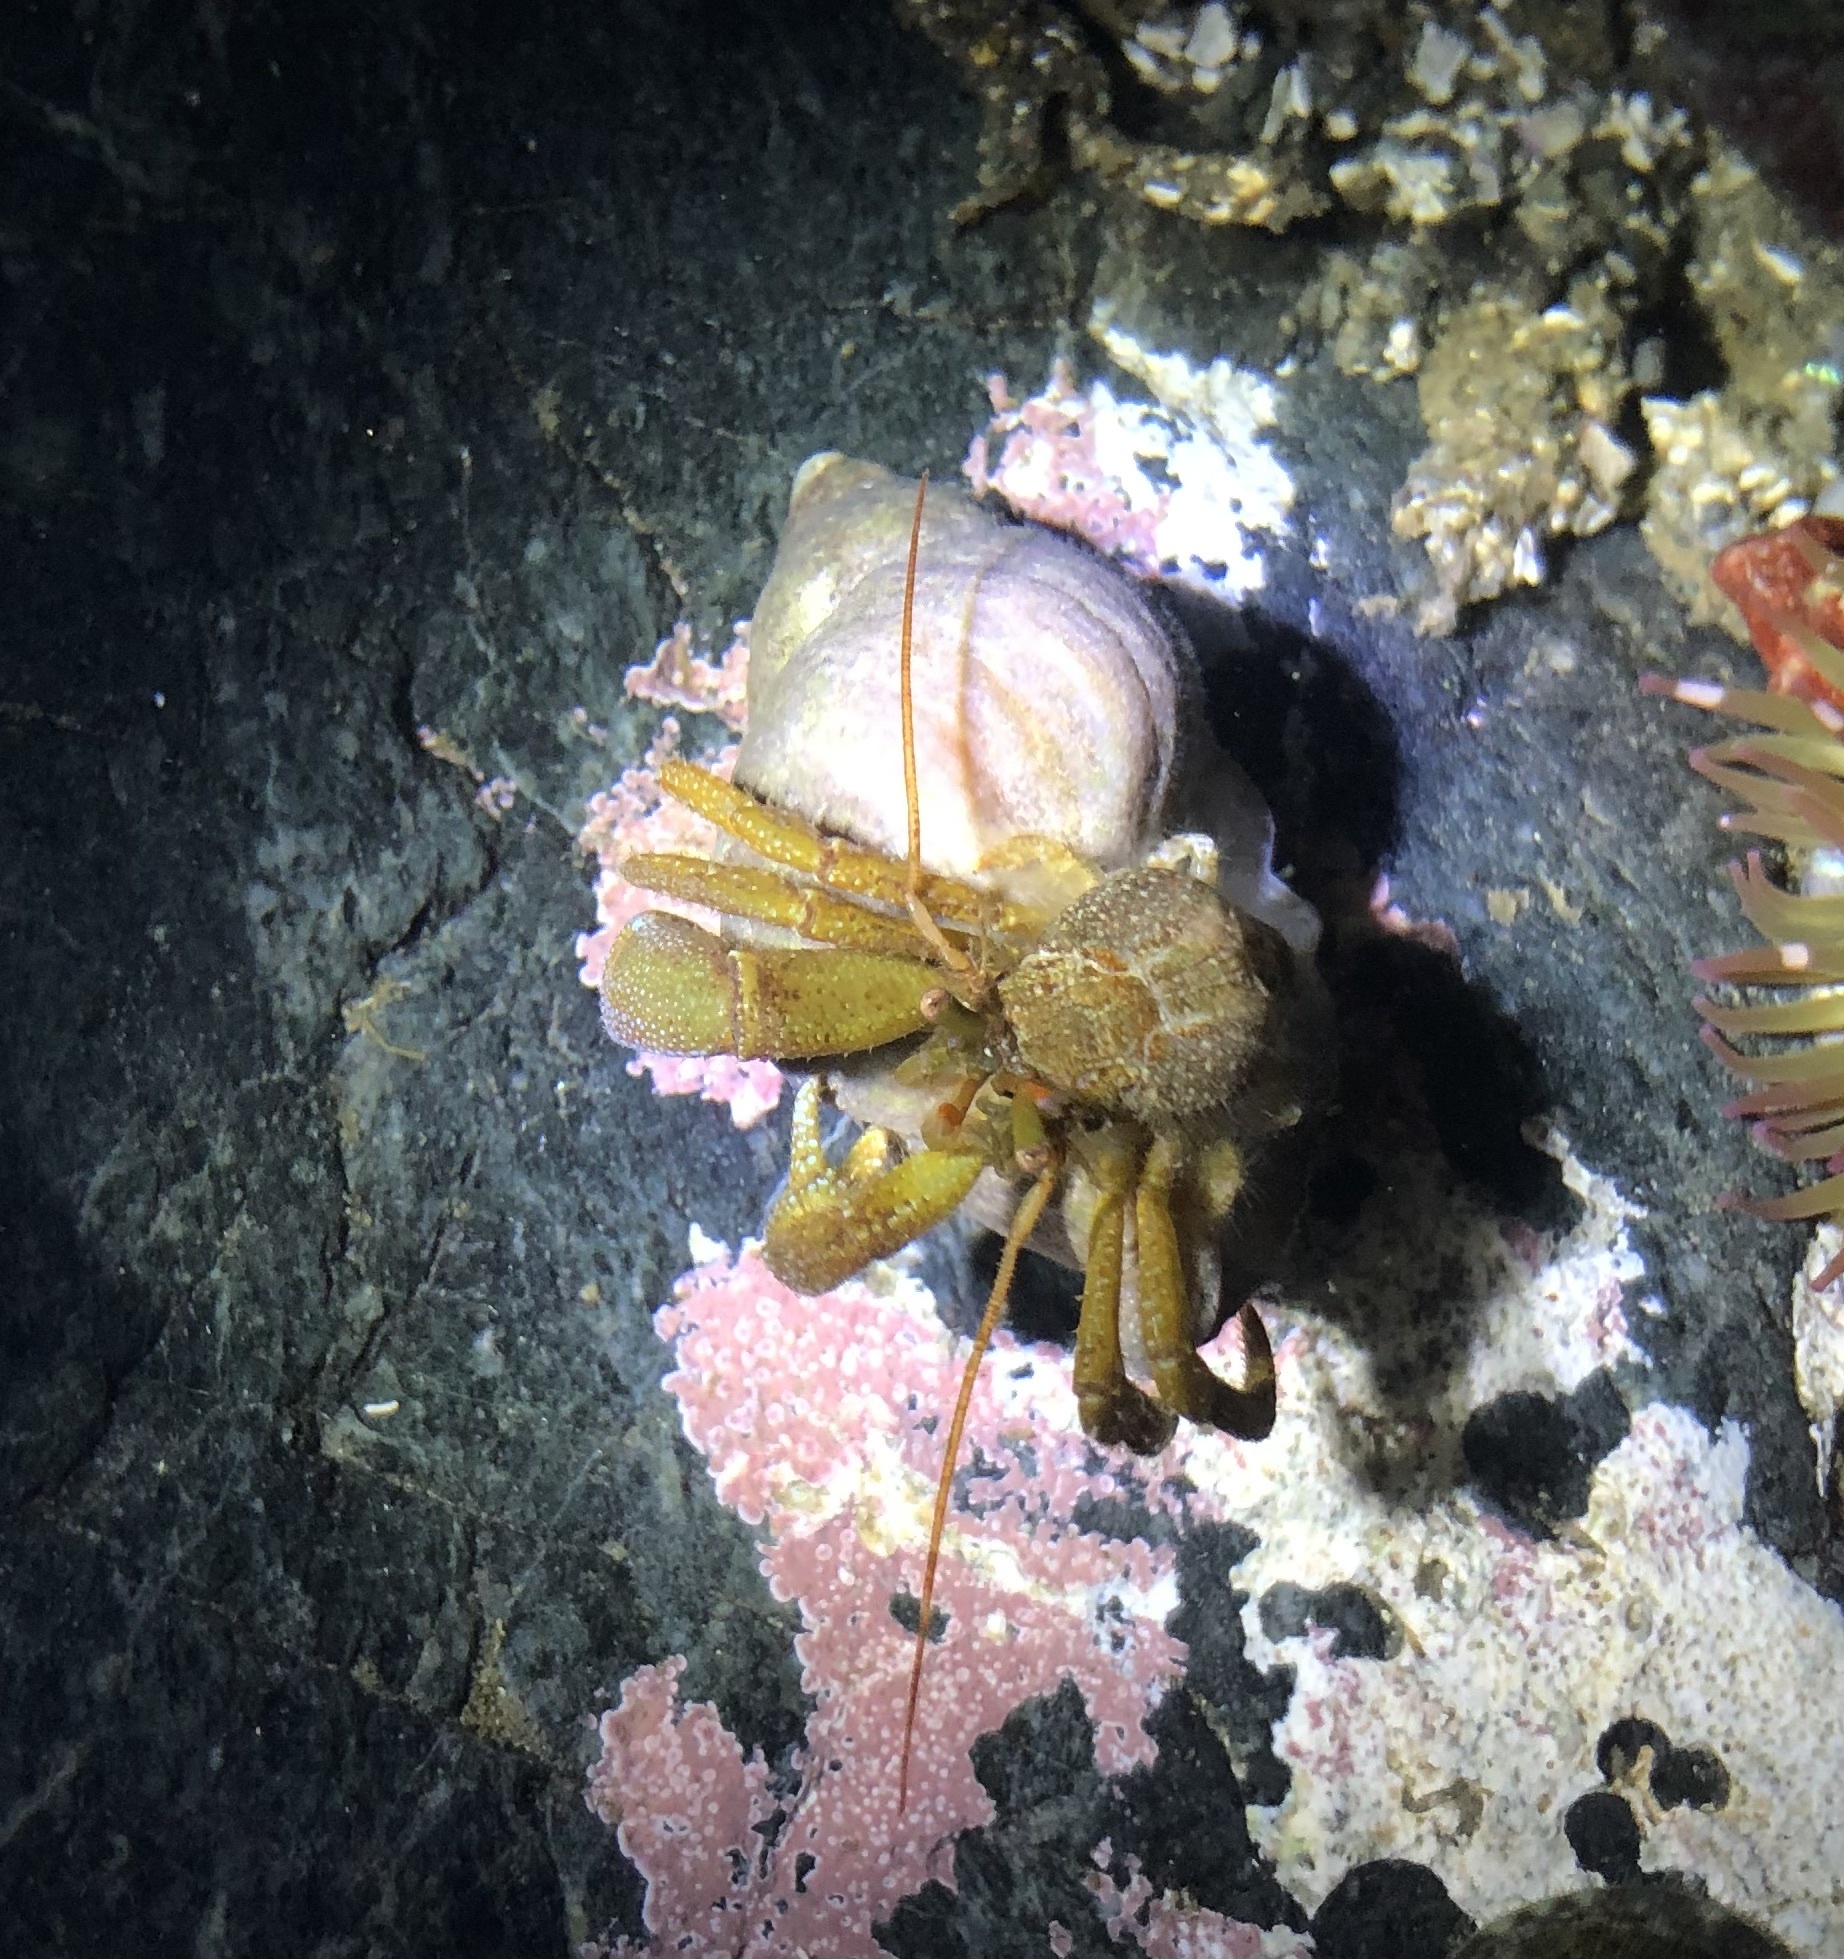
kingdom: Animalia
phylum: Arthropoda
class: Malacostraca
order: Decapoda
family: Paguridae
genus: Pagurus
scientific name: Pagurus granosimanus
